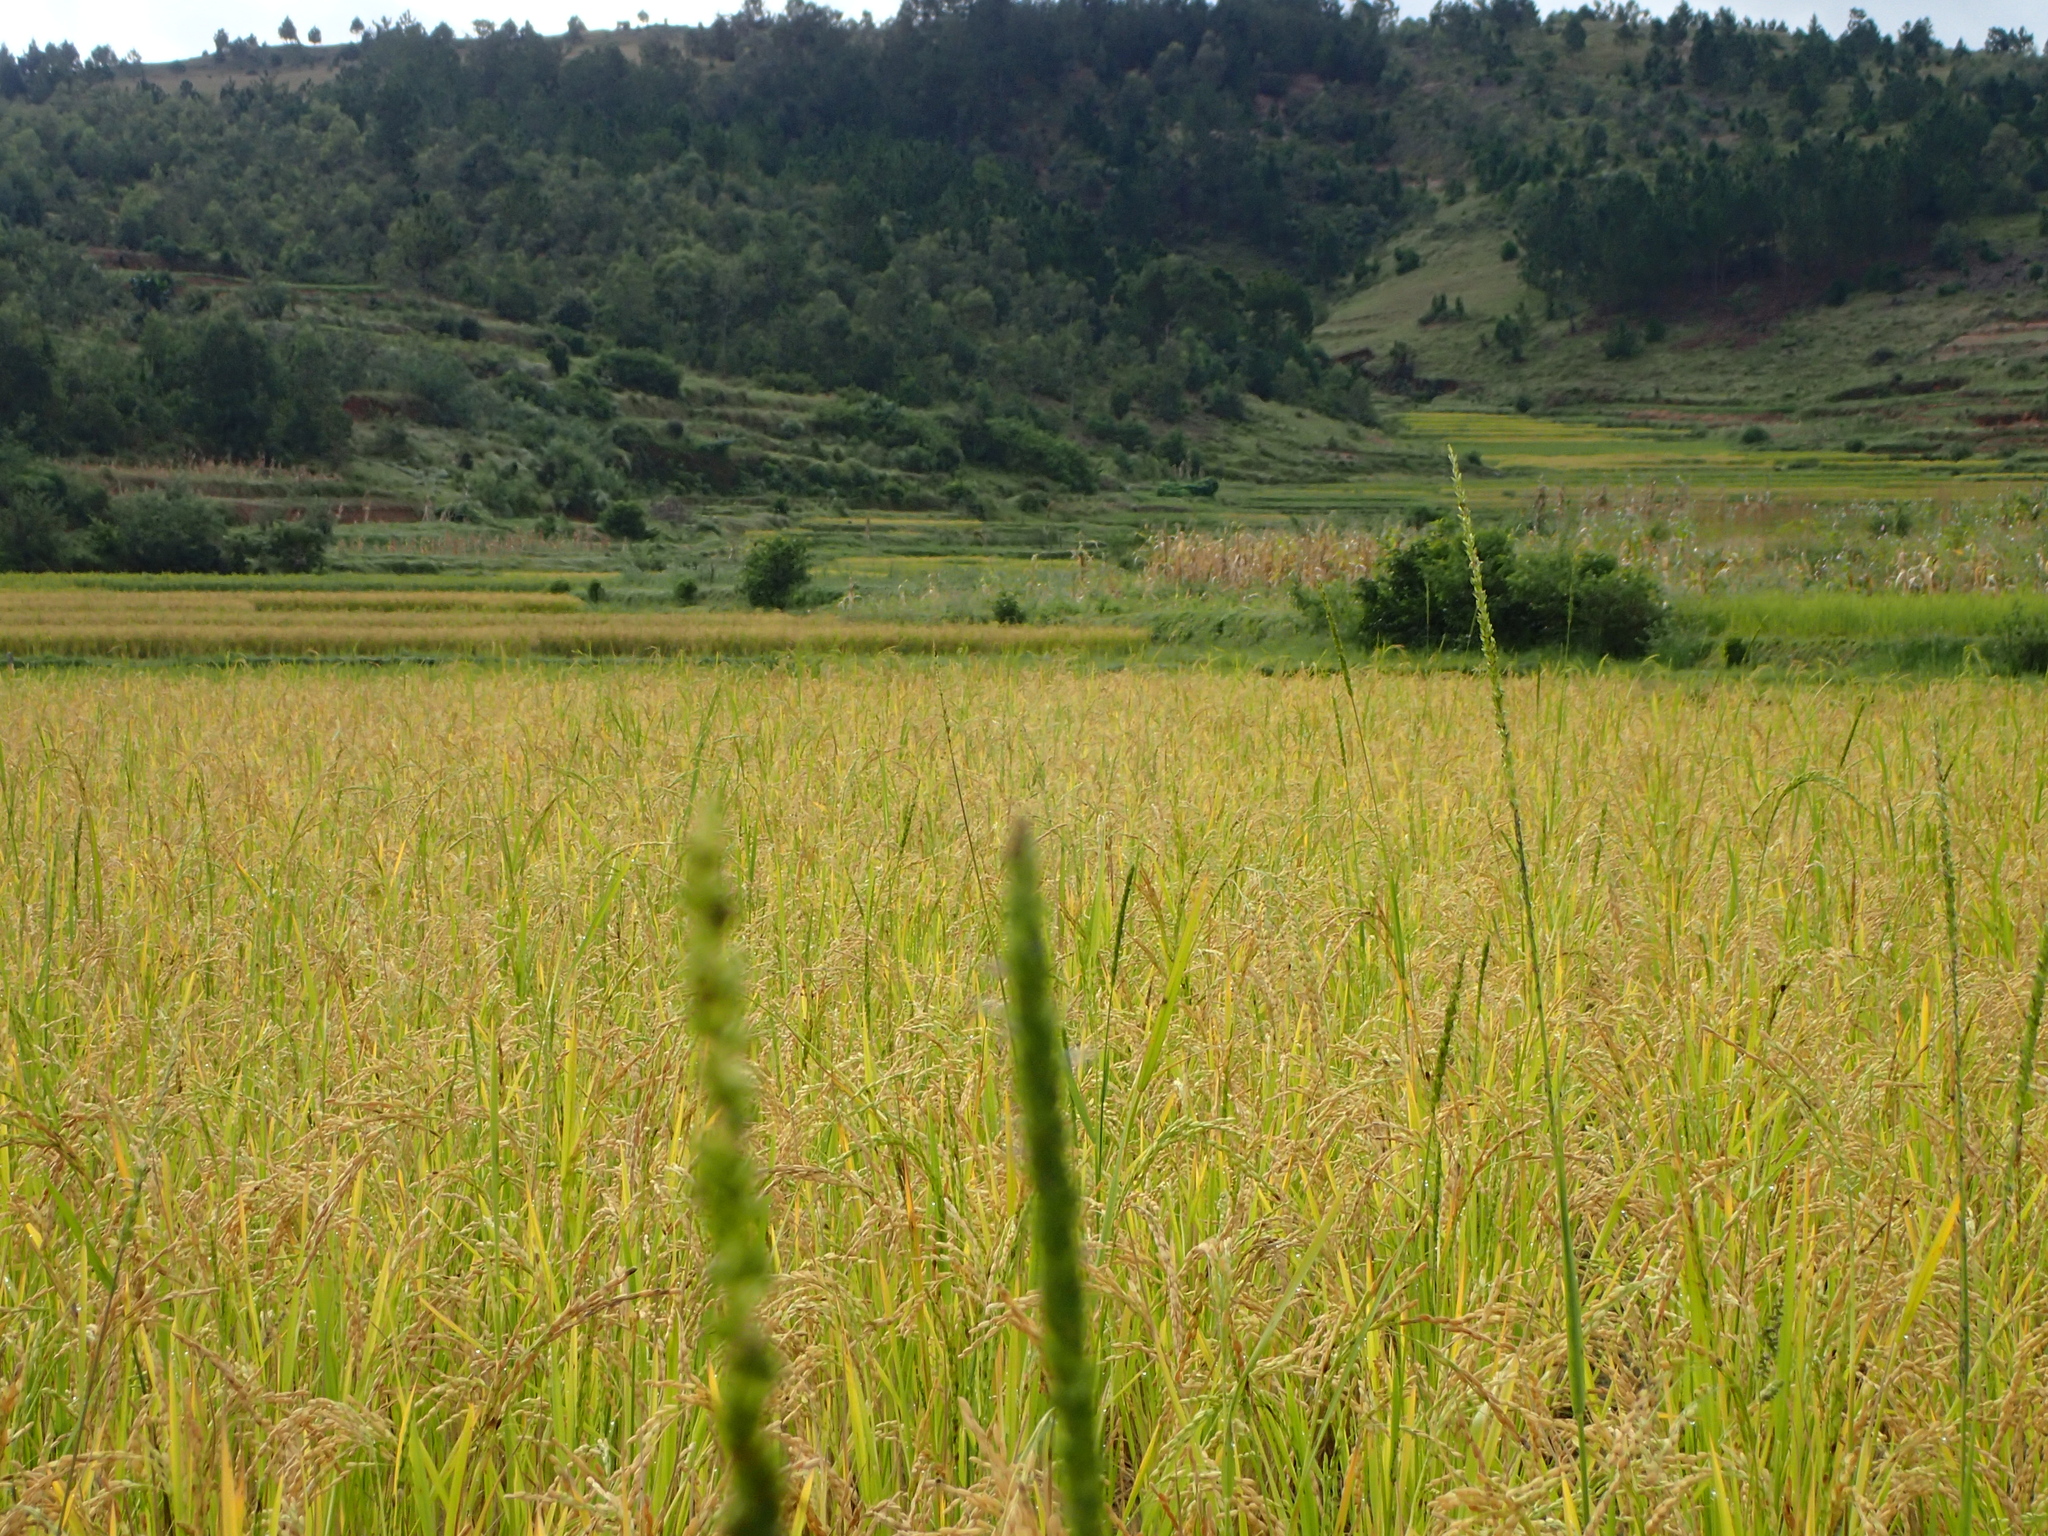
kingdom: Plantae
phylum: Tracheophyta
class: Liliopsida
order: Poales
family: Poaceae
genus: Sacciolepis
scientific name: Sacciolepis africana
